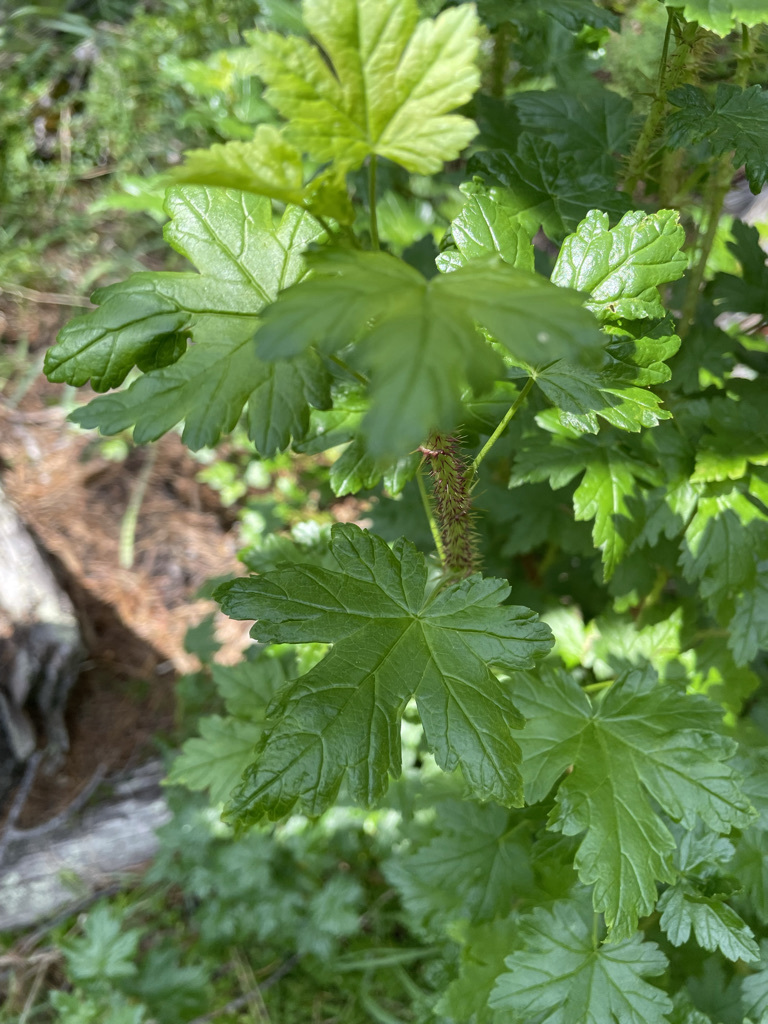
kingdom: Plantae
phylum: Tracheophyta
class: Magnoliopsida
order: Saxifragales
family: Grossulariaceae
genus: Ribes
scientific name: Ribes lacustre
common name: Black gooseberry
